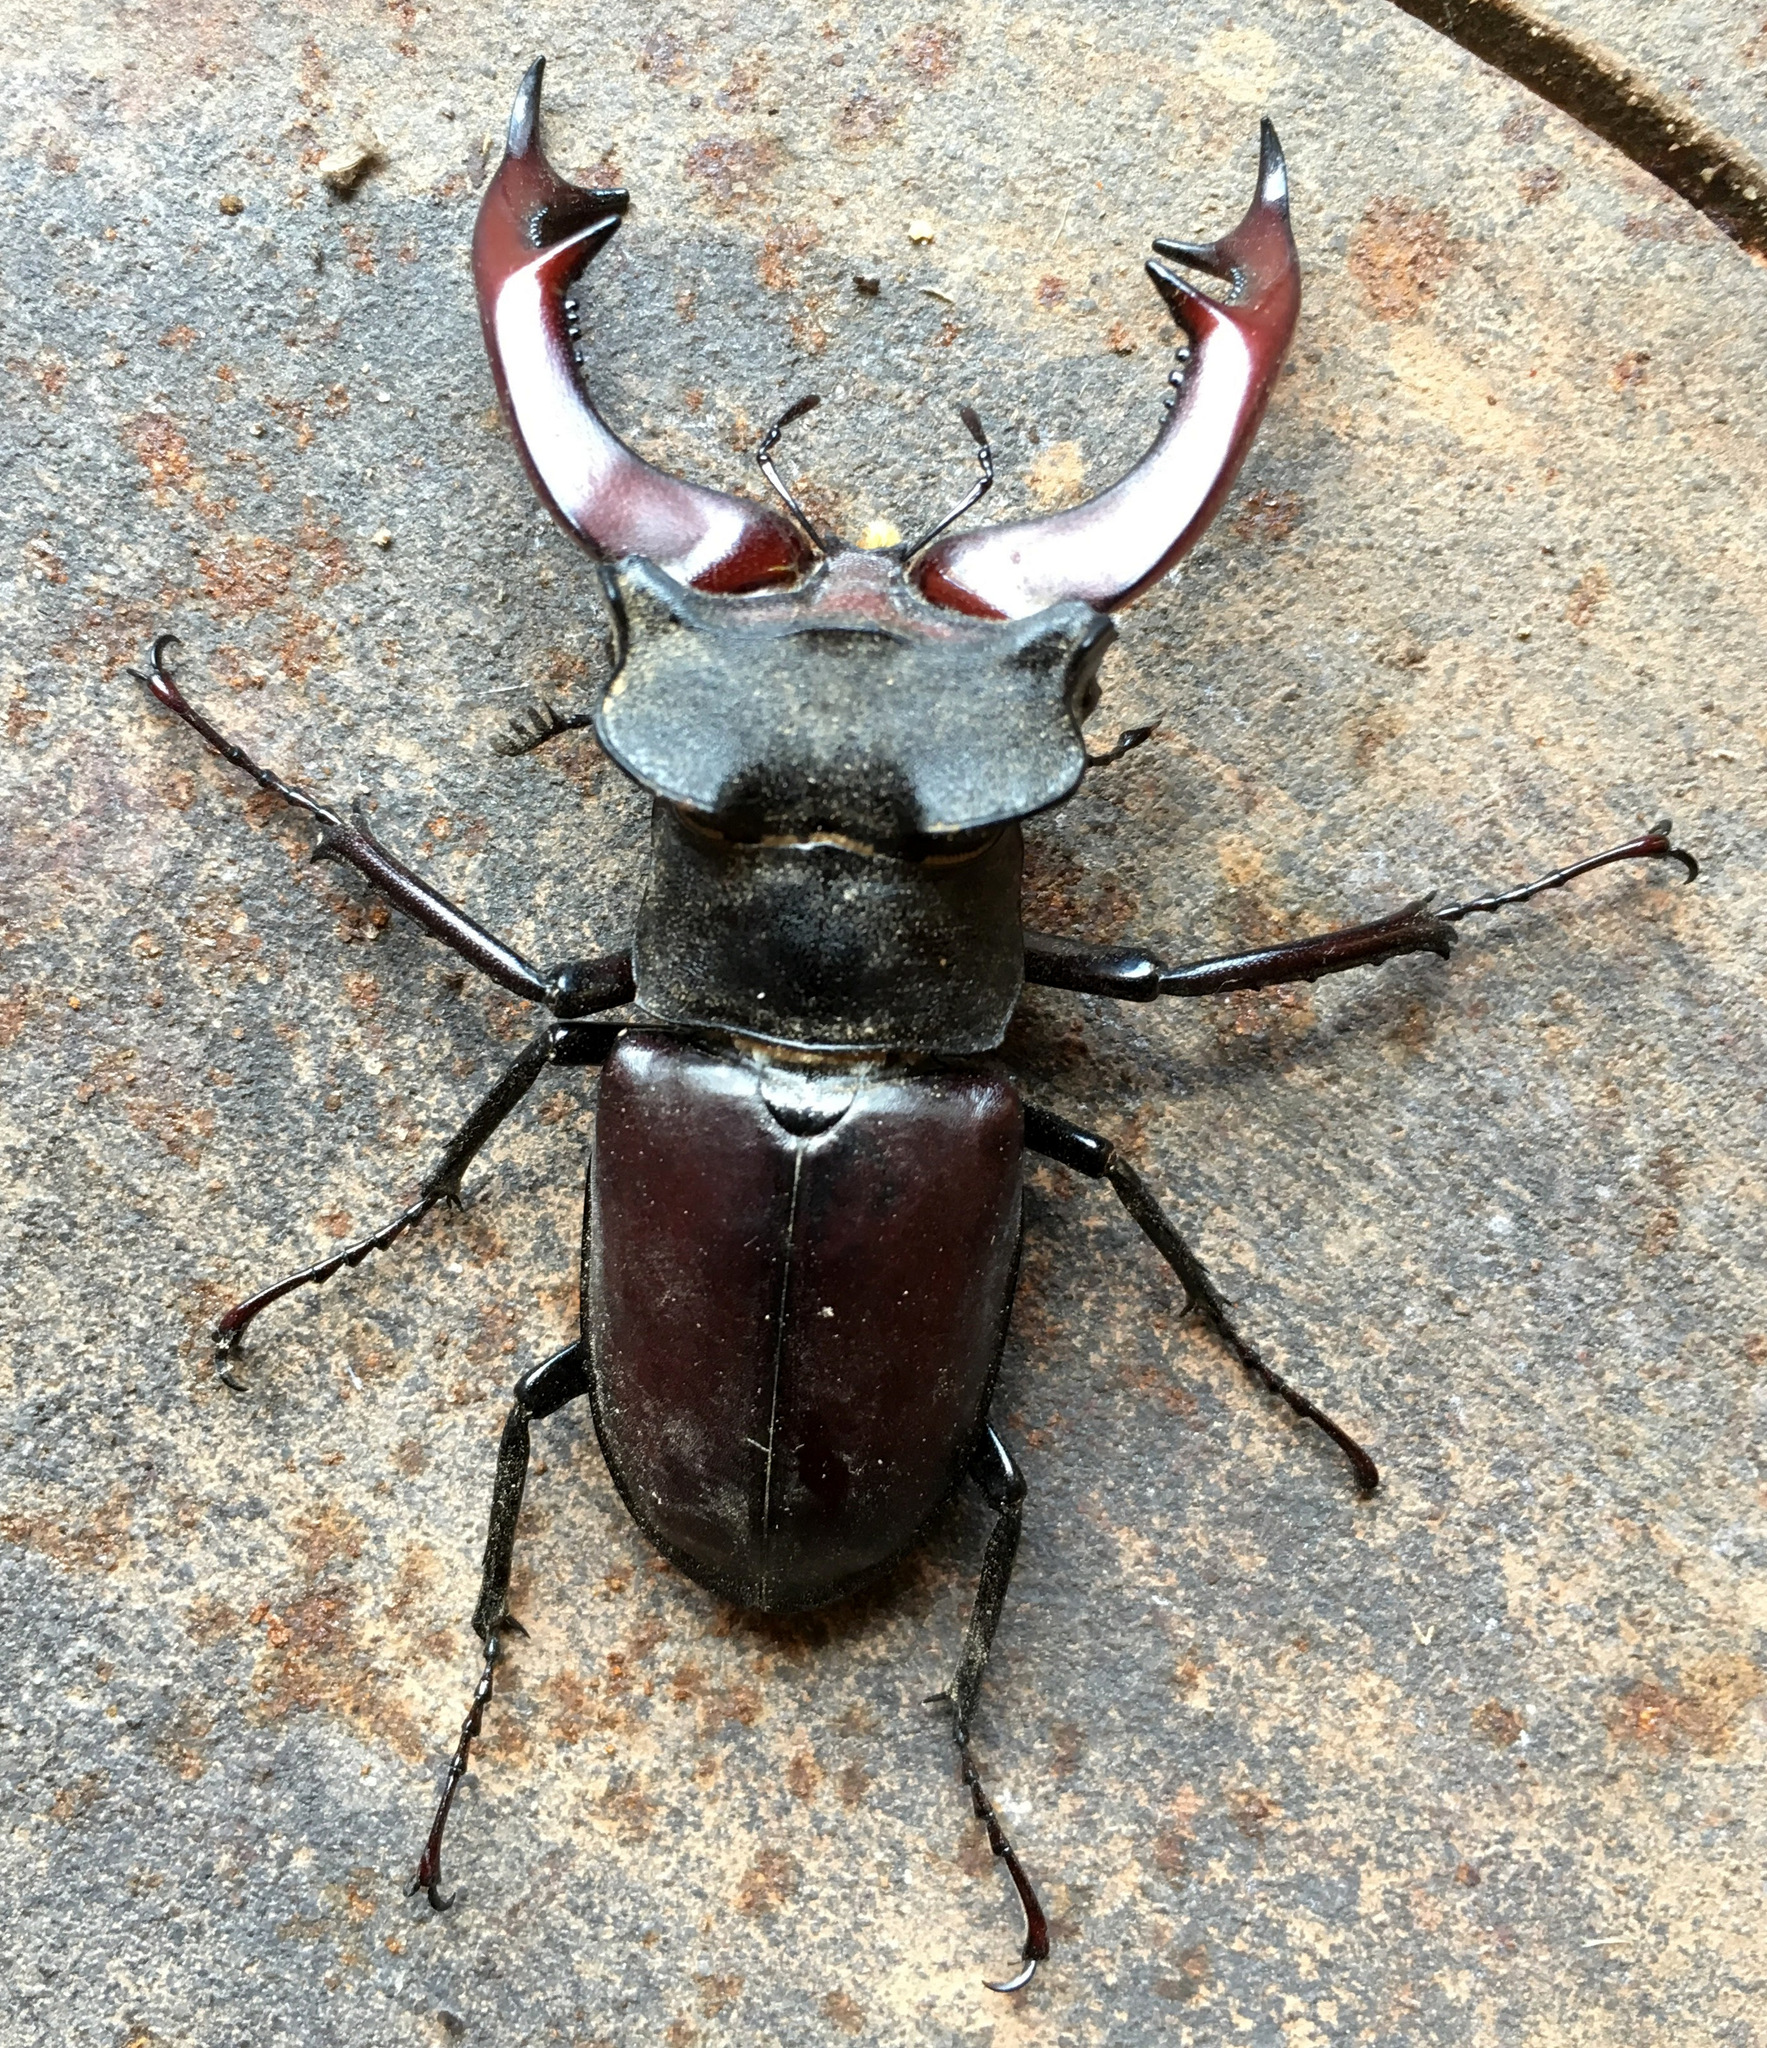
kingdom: Animalia
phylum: Arthropoda
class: Insecta
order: Coleoptera
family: Lucanidae
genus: Lucanus
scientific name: Lucanus cervus
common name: Stag beetle
